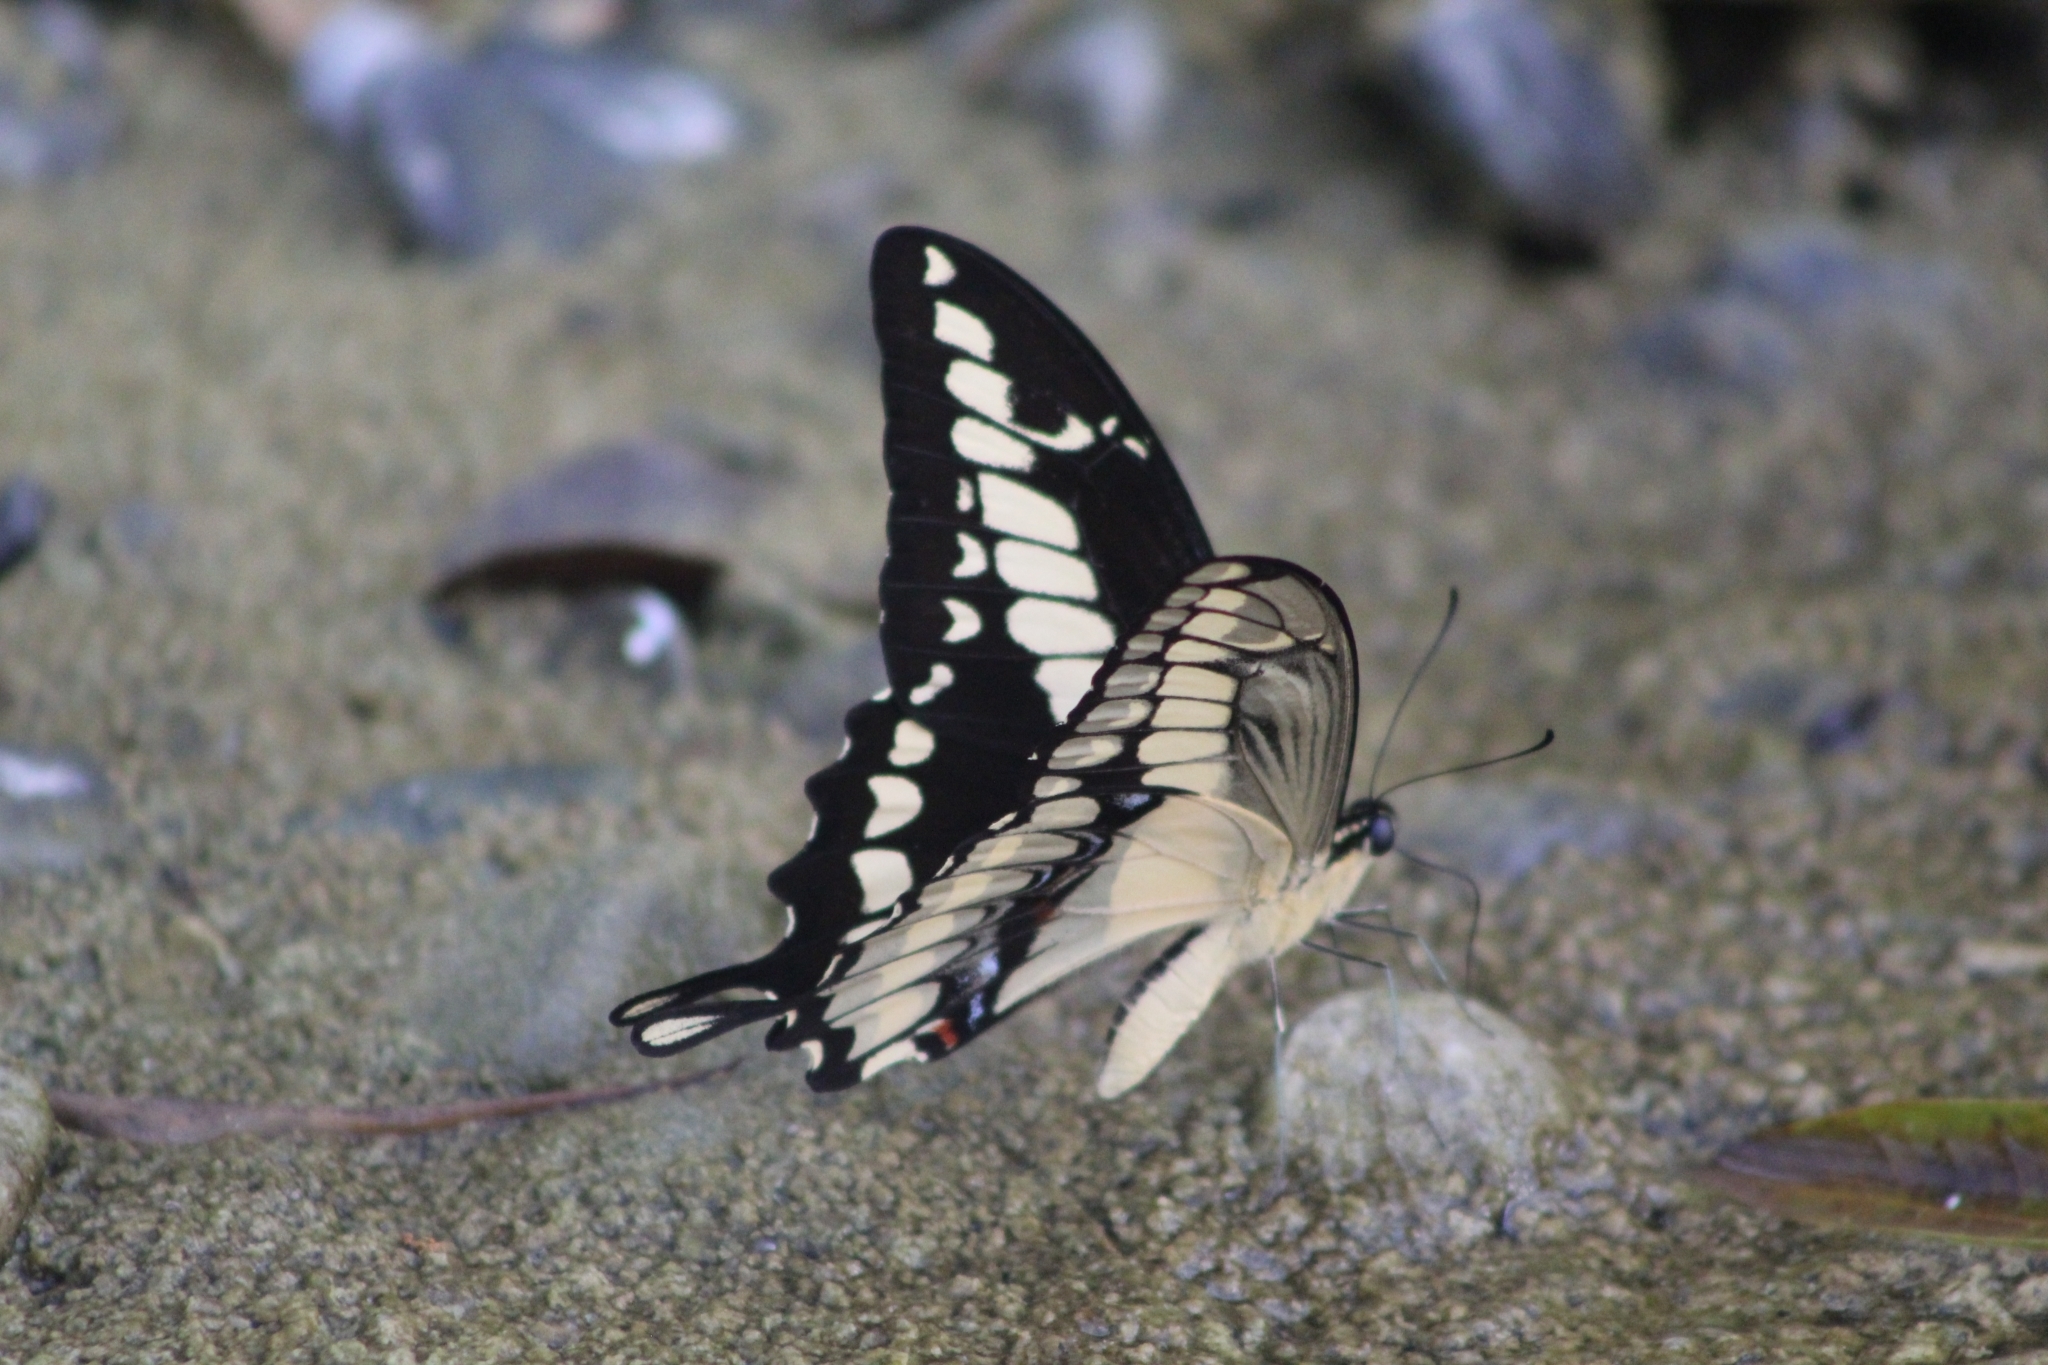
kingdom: Animalia
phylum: Arthropoda
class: Insecta
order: Lepidoptera
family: Papilionidae
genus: Papilio
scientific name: Papilio thoas
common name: King swallowtail
